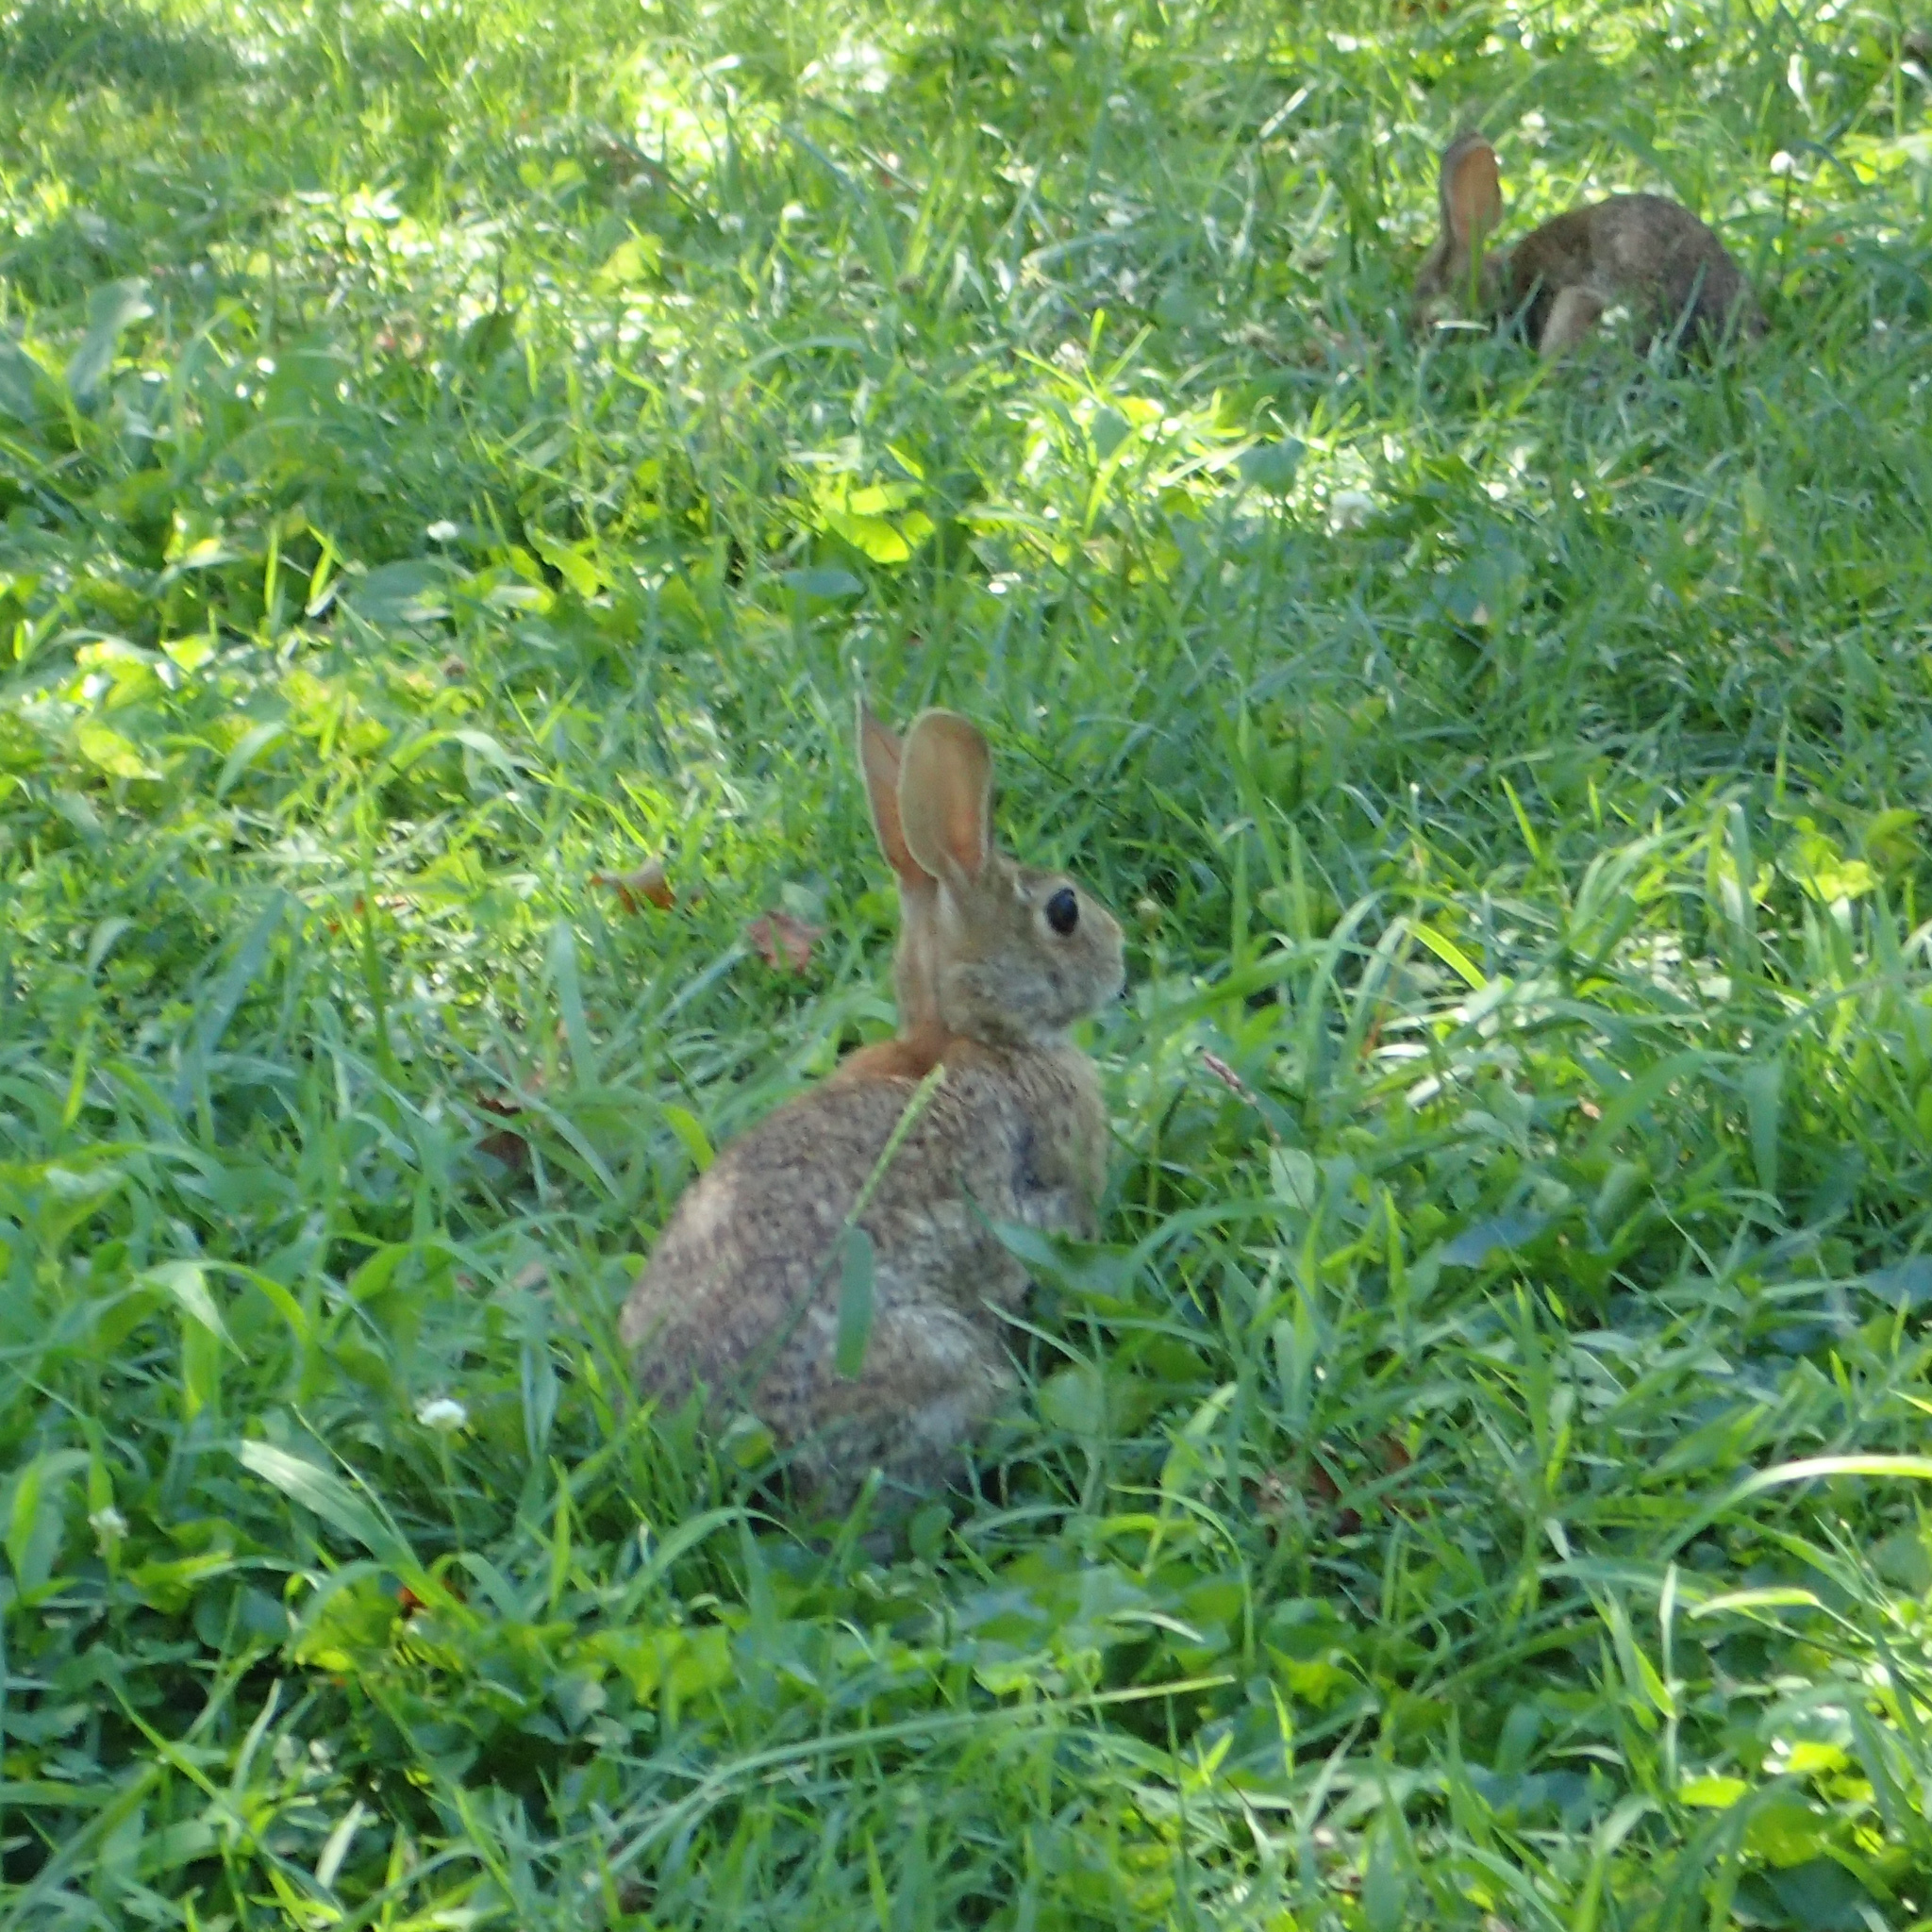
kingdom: Animalia
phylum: Chordata
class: Mammalia
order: Lagomorpha
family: Leporidae
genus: Sylvilagus
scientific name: Sylvilagus floridanus
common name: Eastern cottontail
